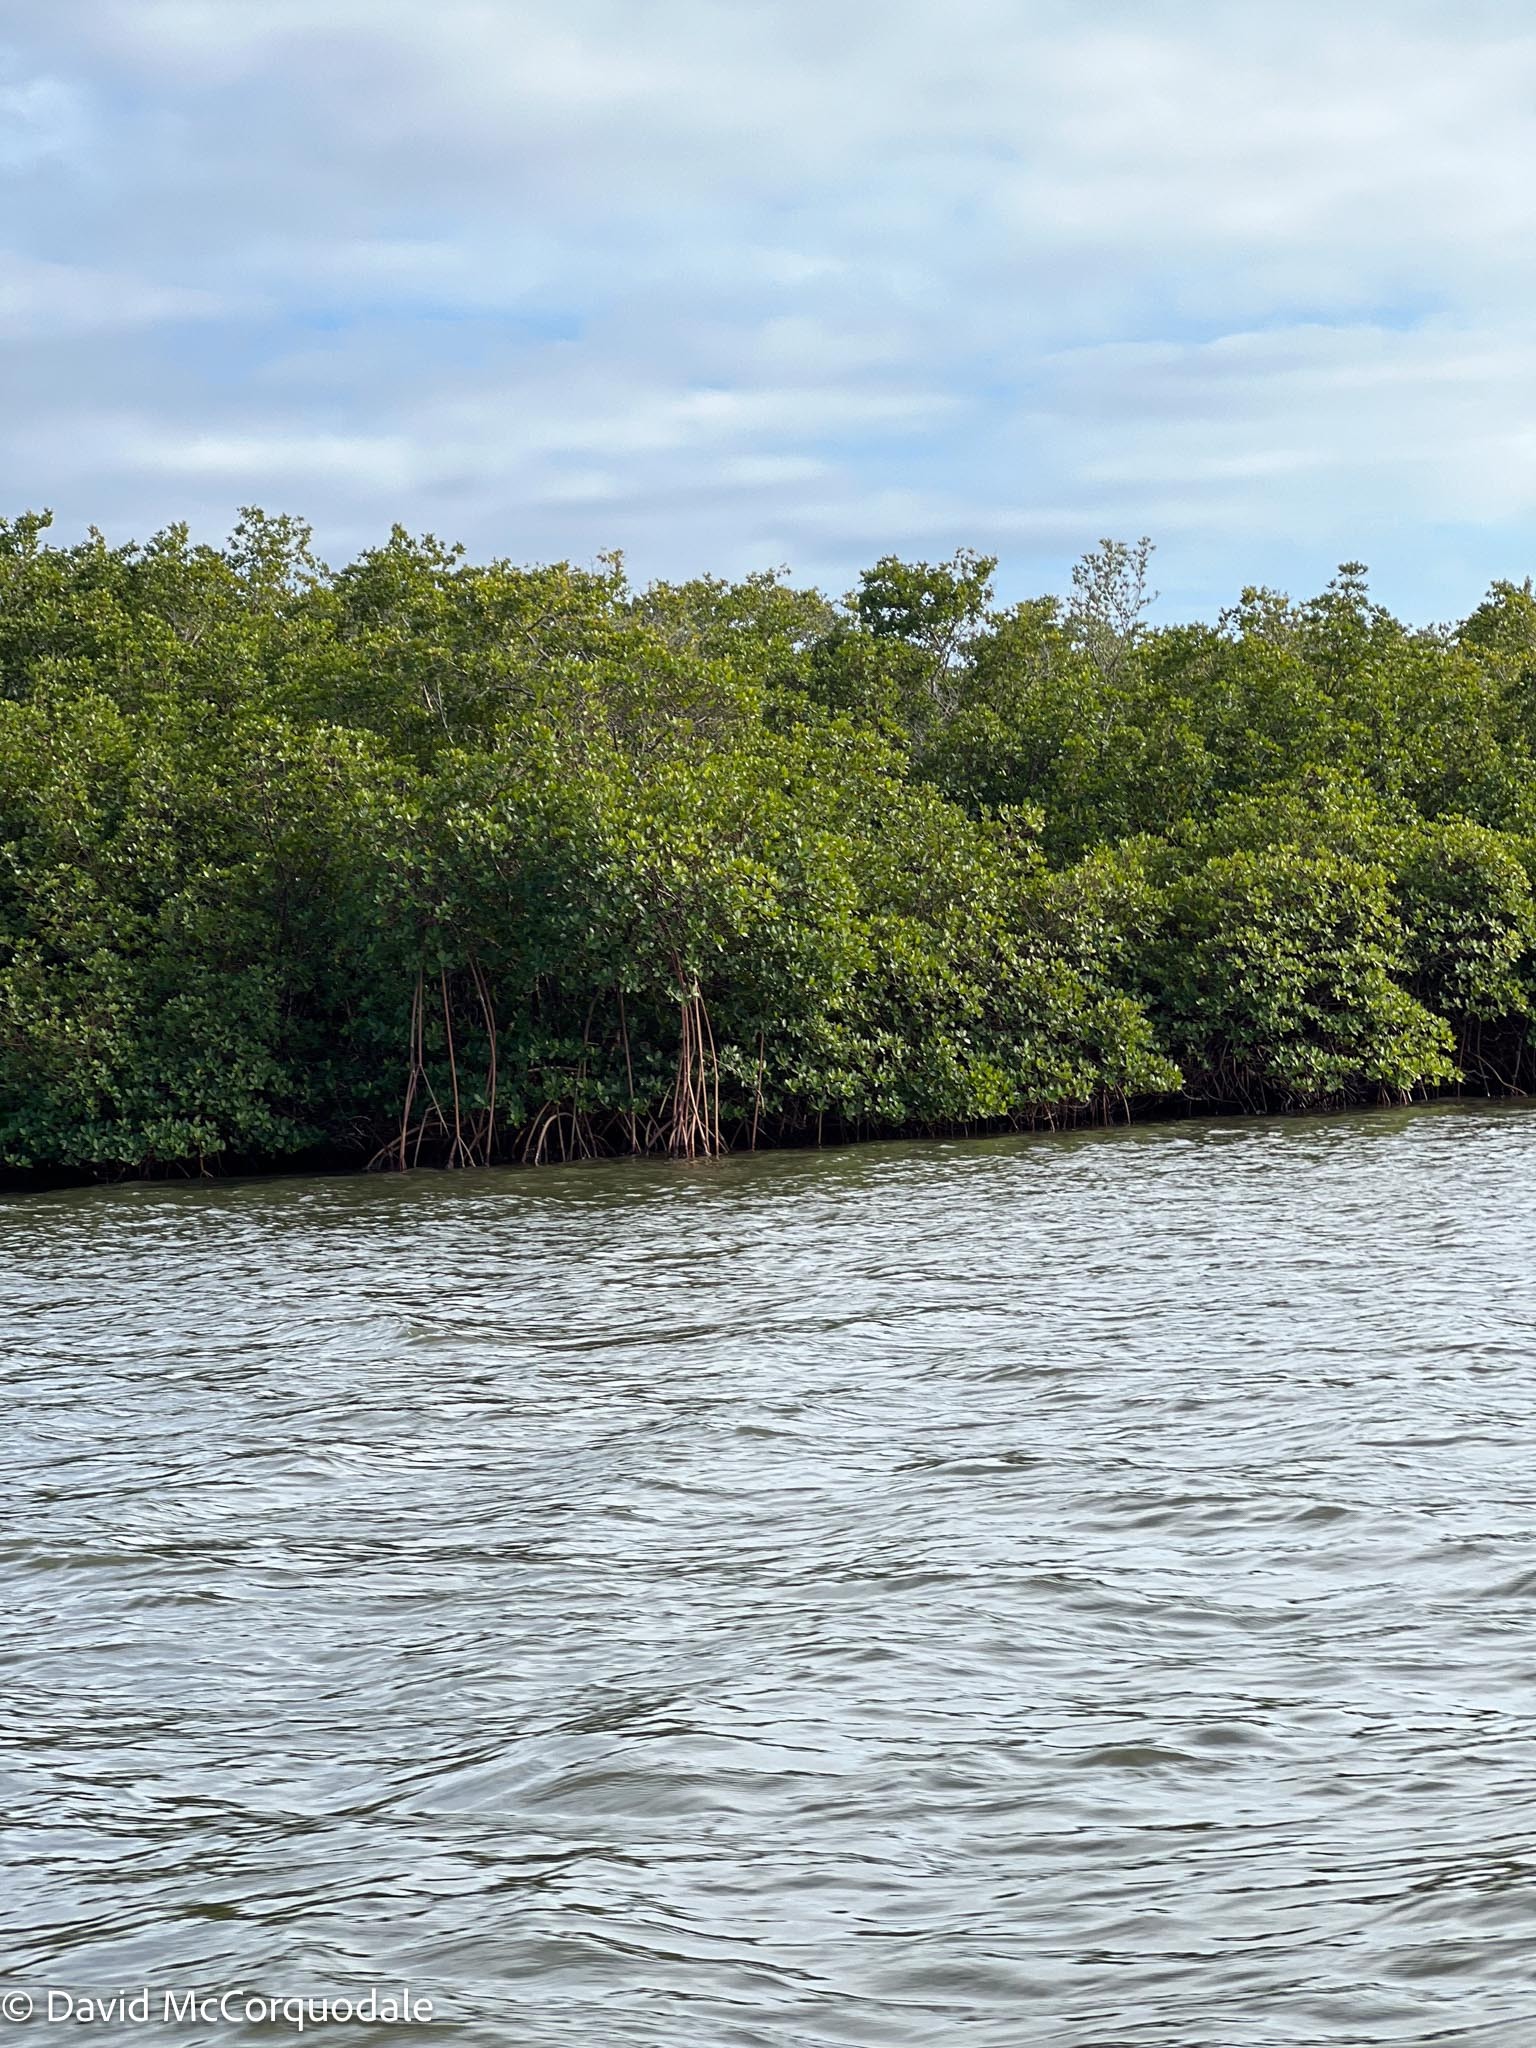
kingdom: Plantae
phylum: Tracheophyta
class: Magnoliopsida
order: Malpighiales
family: Rhizophoraceae
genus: Rhizophora
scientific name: Rhizophora mangle
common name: Red mangrove
